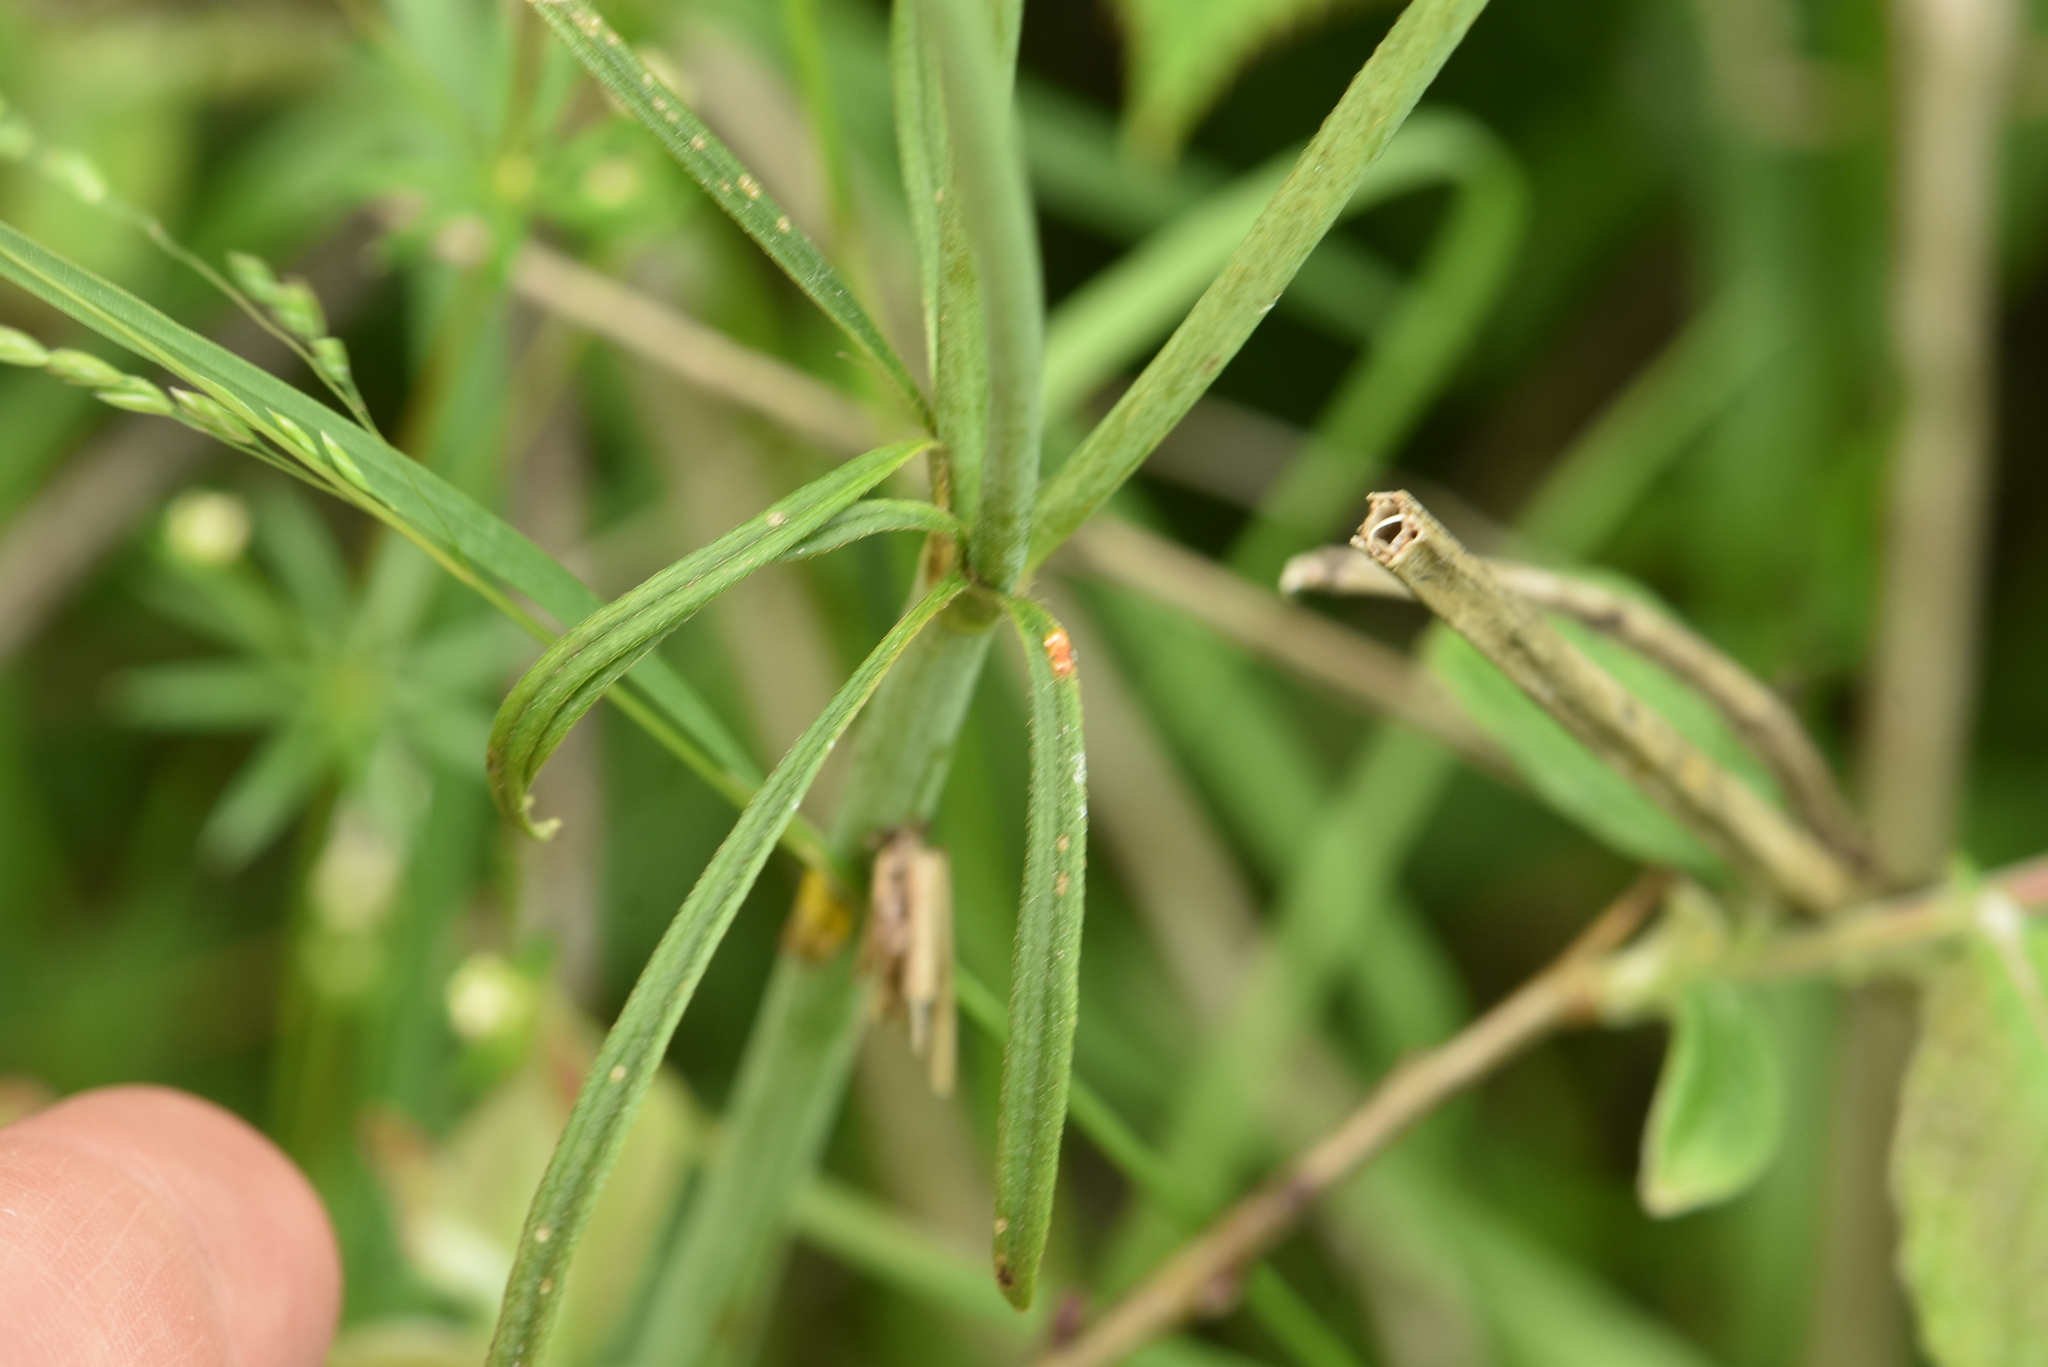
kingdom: Plantae
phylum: Tracheophyta
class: Magnoliopsida
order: Ranunculales
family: Ranunculaceae
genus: Ranunculus
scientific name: Ranunculus acris
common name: Meadow buttercup
